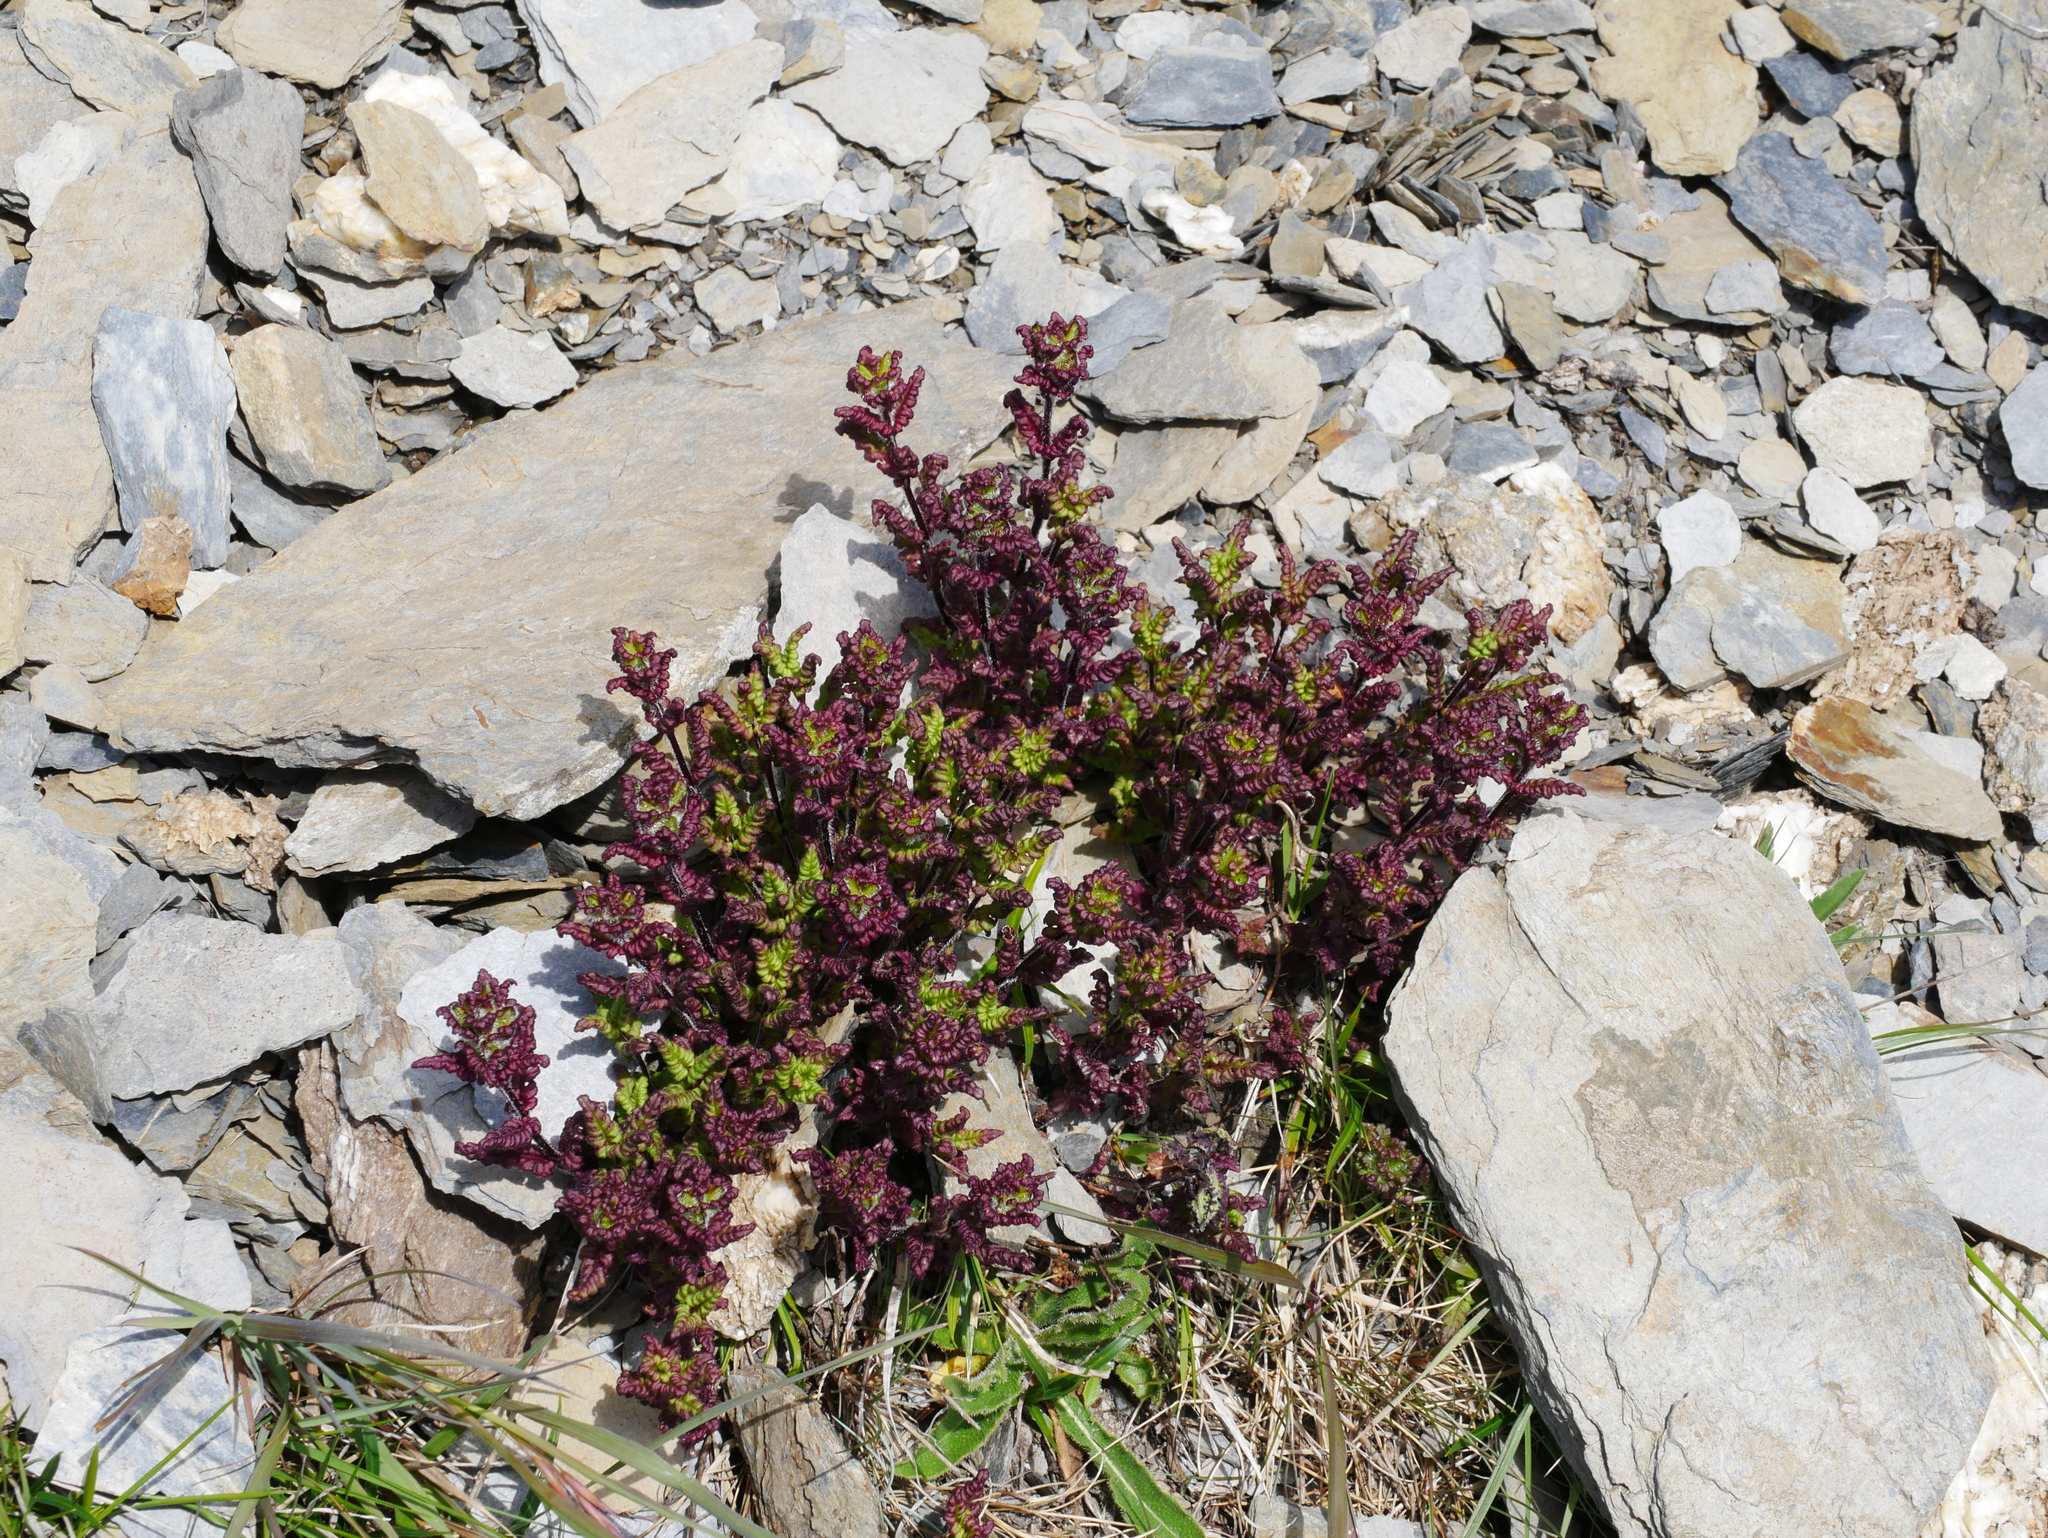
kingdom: Plantae
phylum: Tracheophyta
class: Magnoliopsida
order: Lamiales
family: Orobanchaceae
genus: Pedicularis
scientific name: Pedicularis ikomai
